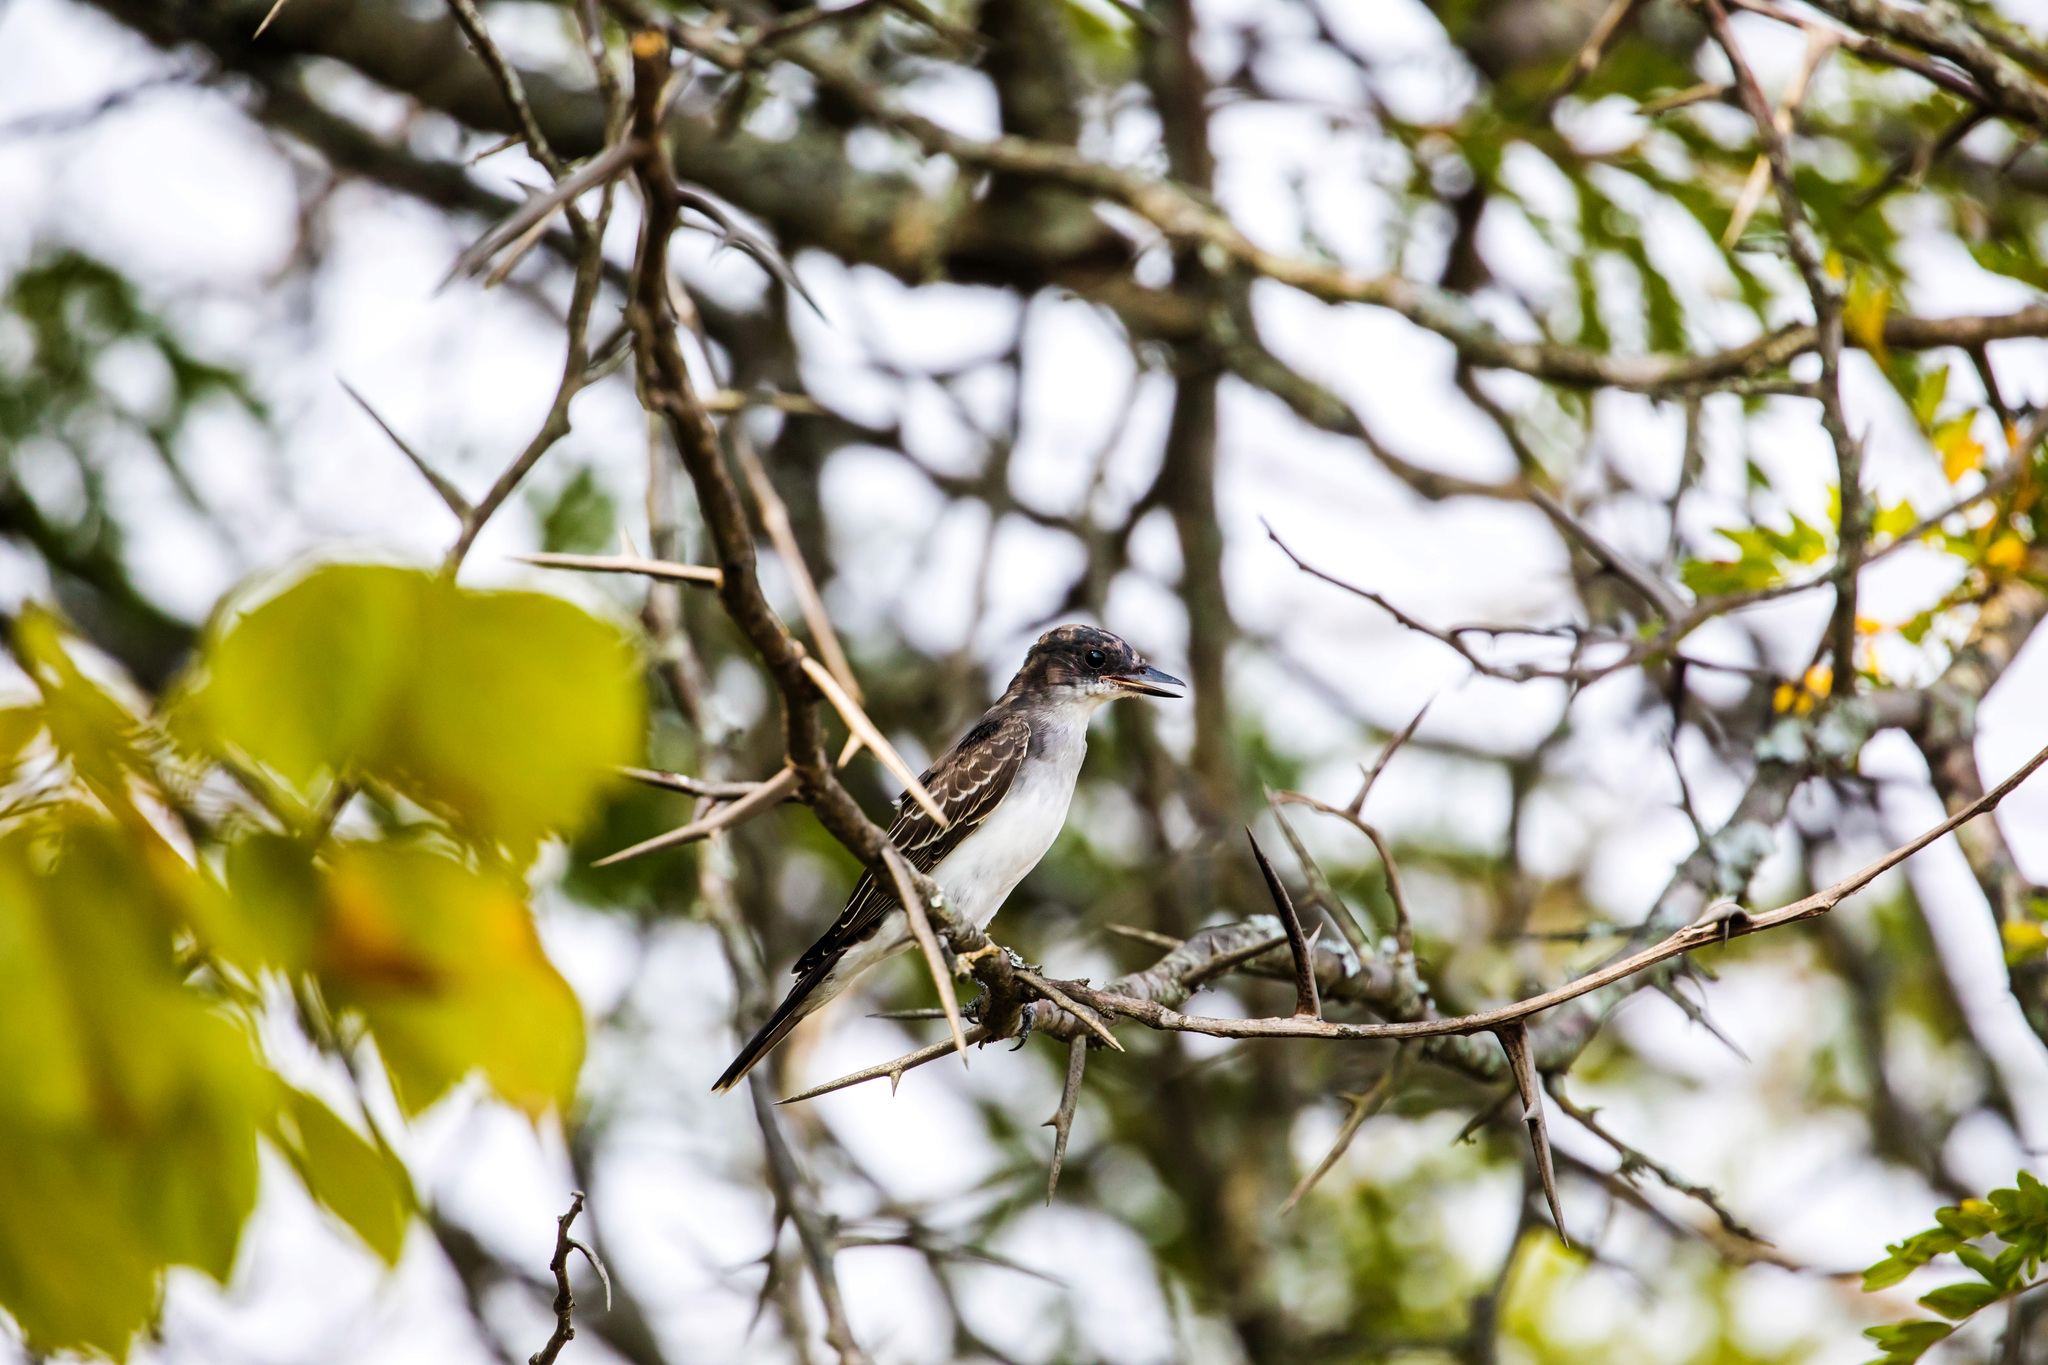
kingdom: Animalia
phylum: Chordata
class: Aves
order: Passeriformes
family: Tyrannidae
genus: Tyrannus
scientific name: Tyrannus tyrannus
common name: Eastern kingbird
